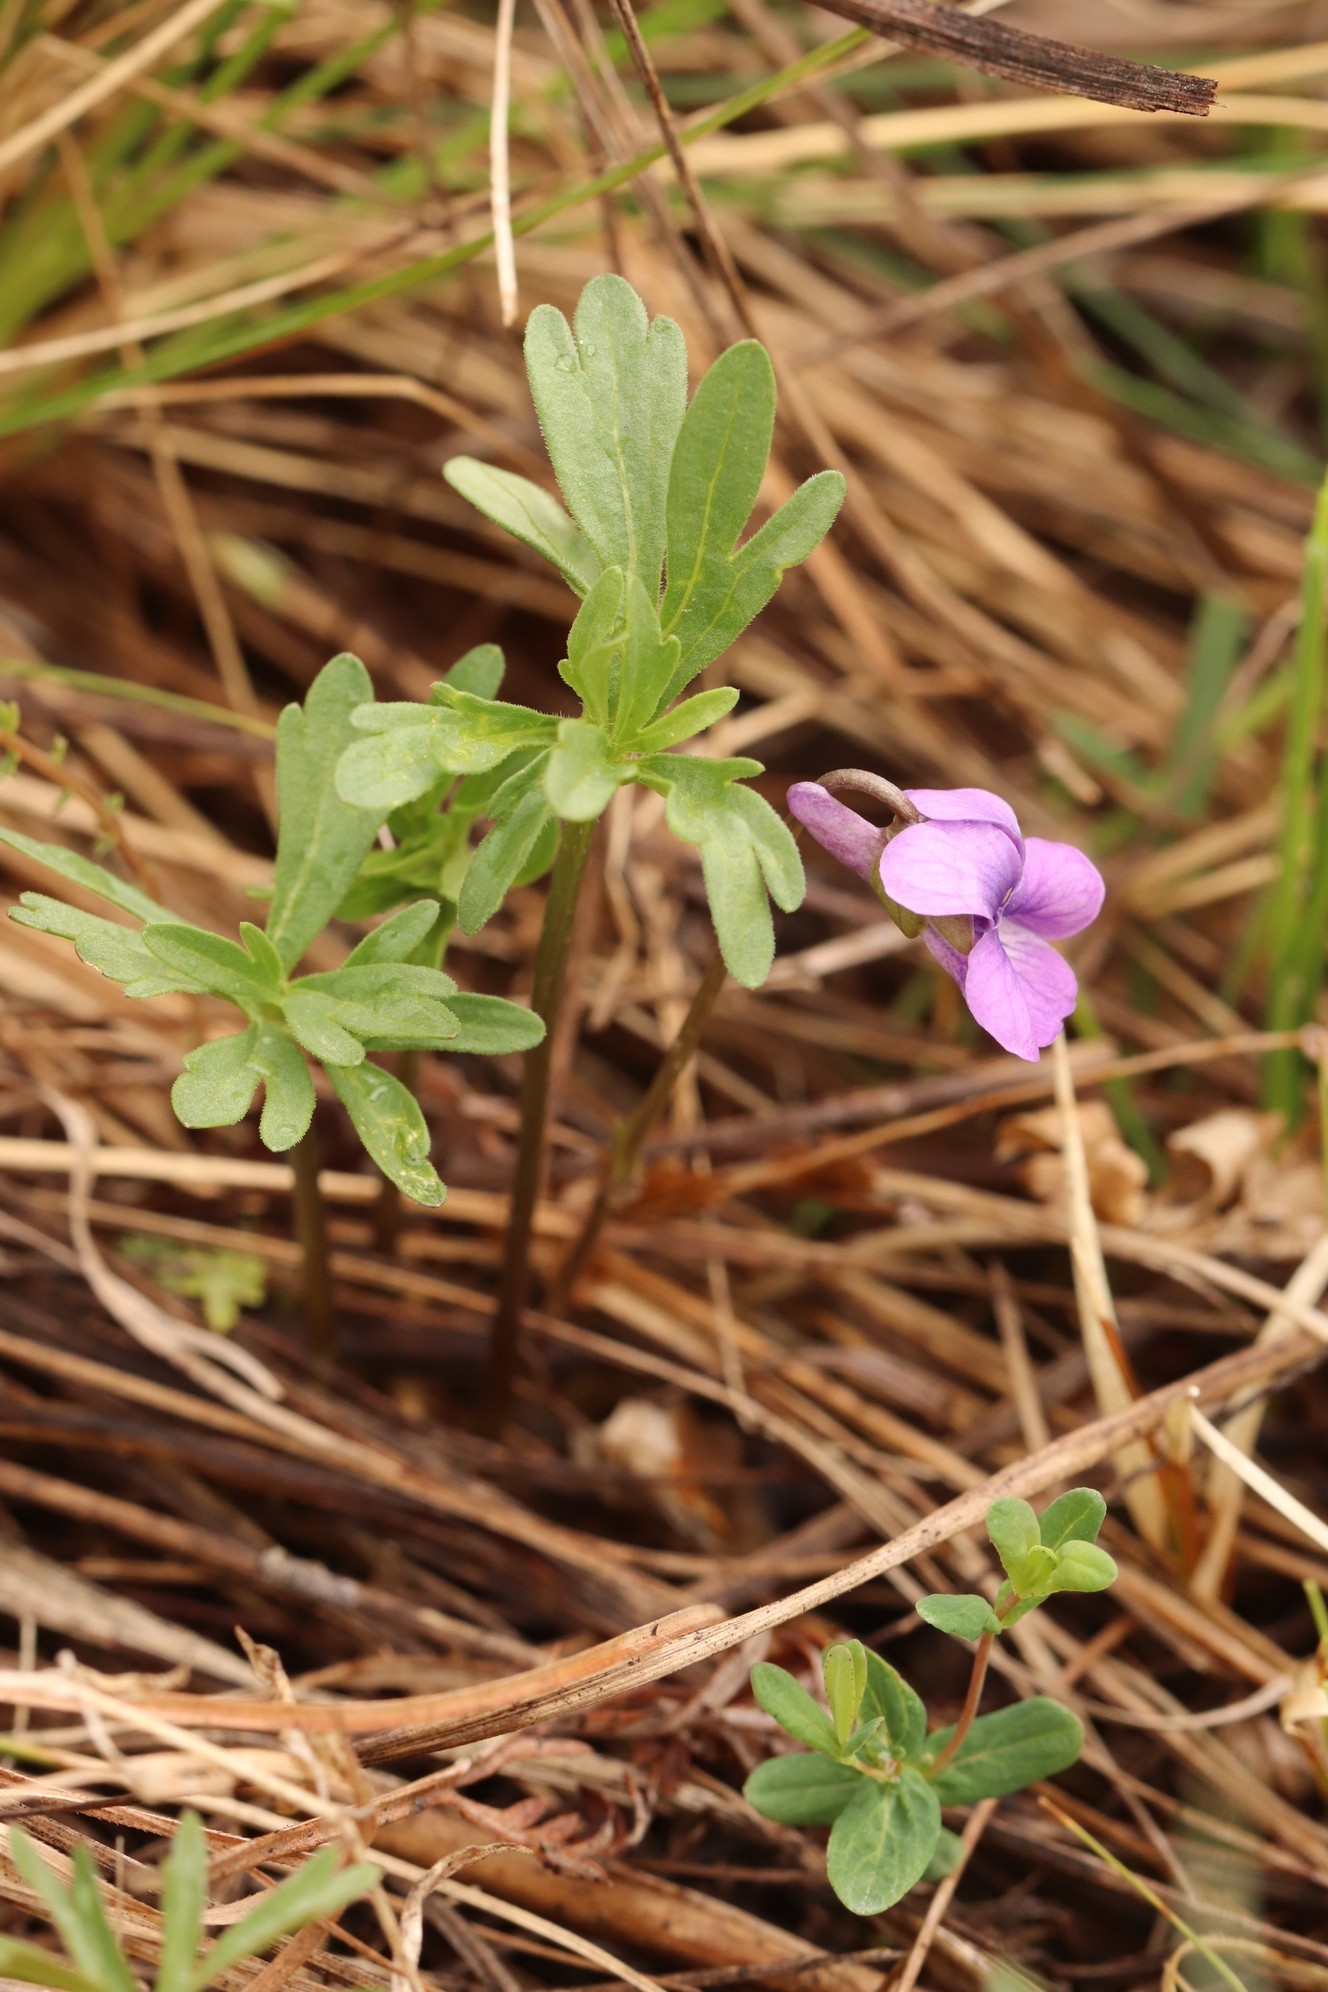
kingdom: Plantae
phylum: Tracheophyta
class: Magnoliopsida
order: Malpighiales
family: Violaceae
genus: Viola
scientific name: Viola multifida
